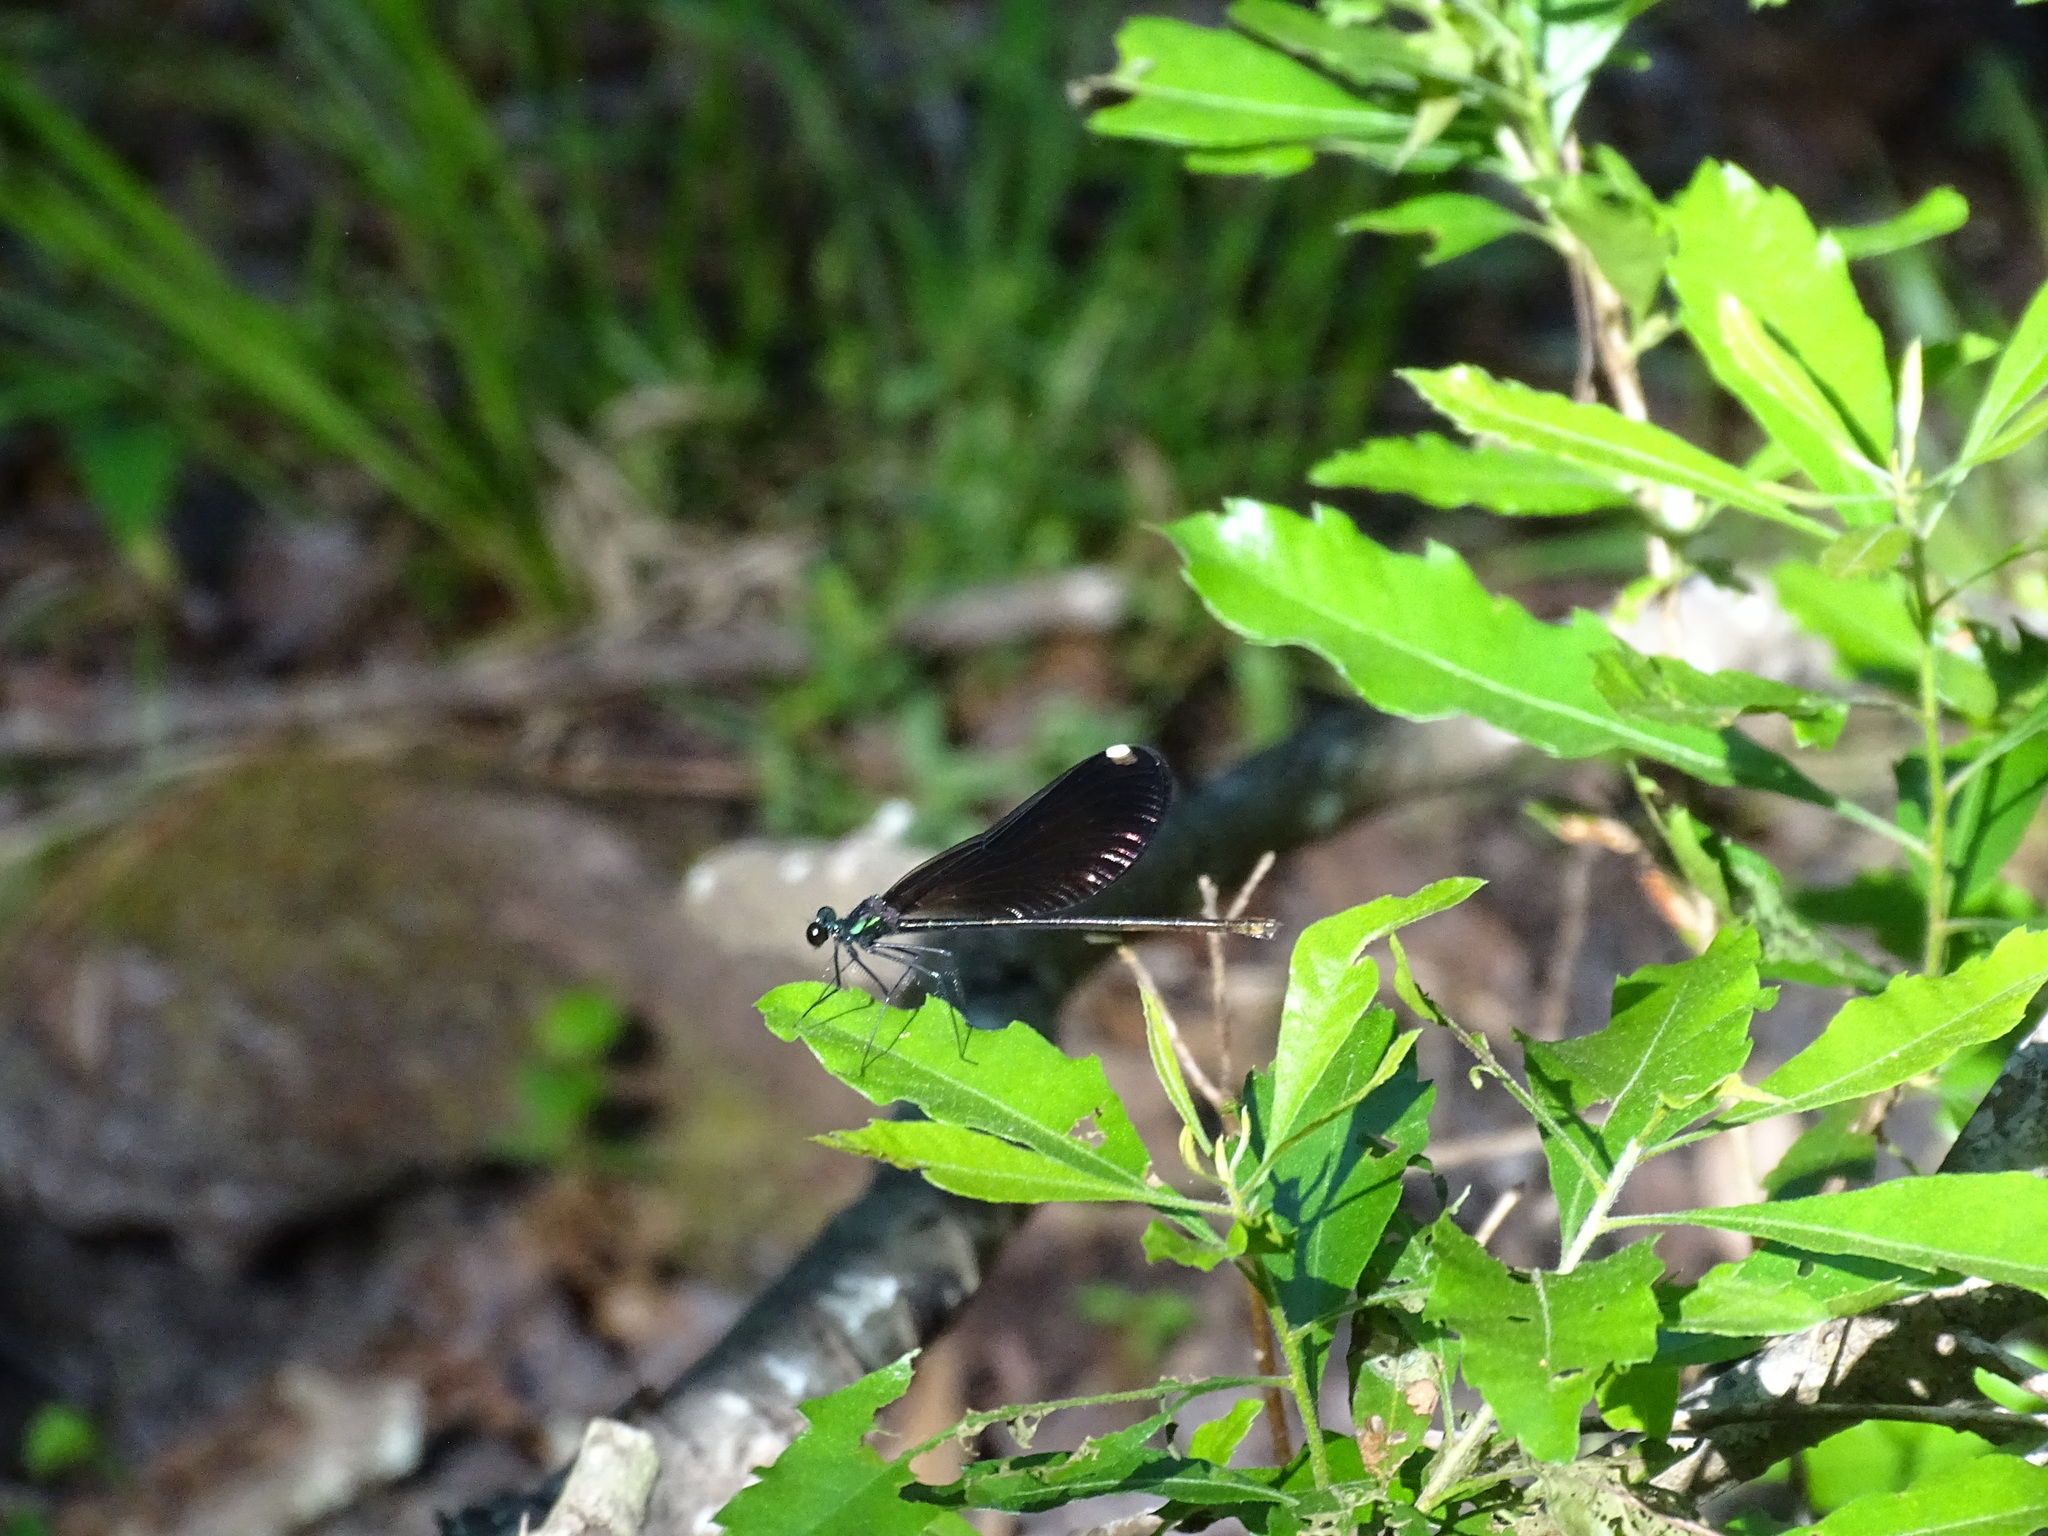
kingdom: Animalia
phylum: Arthropoda
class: Insecta
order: Odonata
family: Calopterygidae
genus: Calopteryx
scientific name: Calopteryx maculata
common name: Ebony jewelwing
